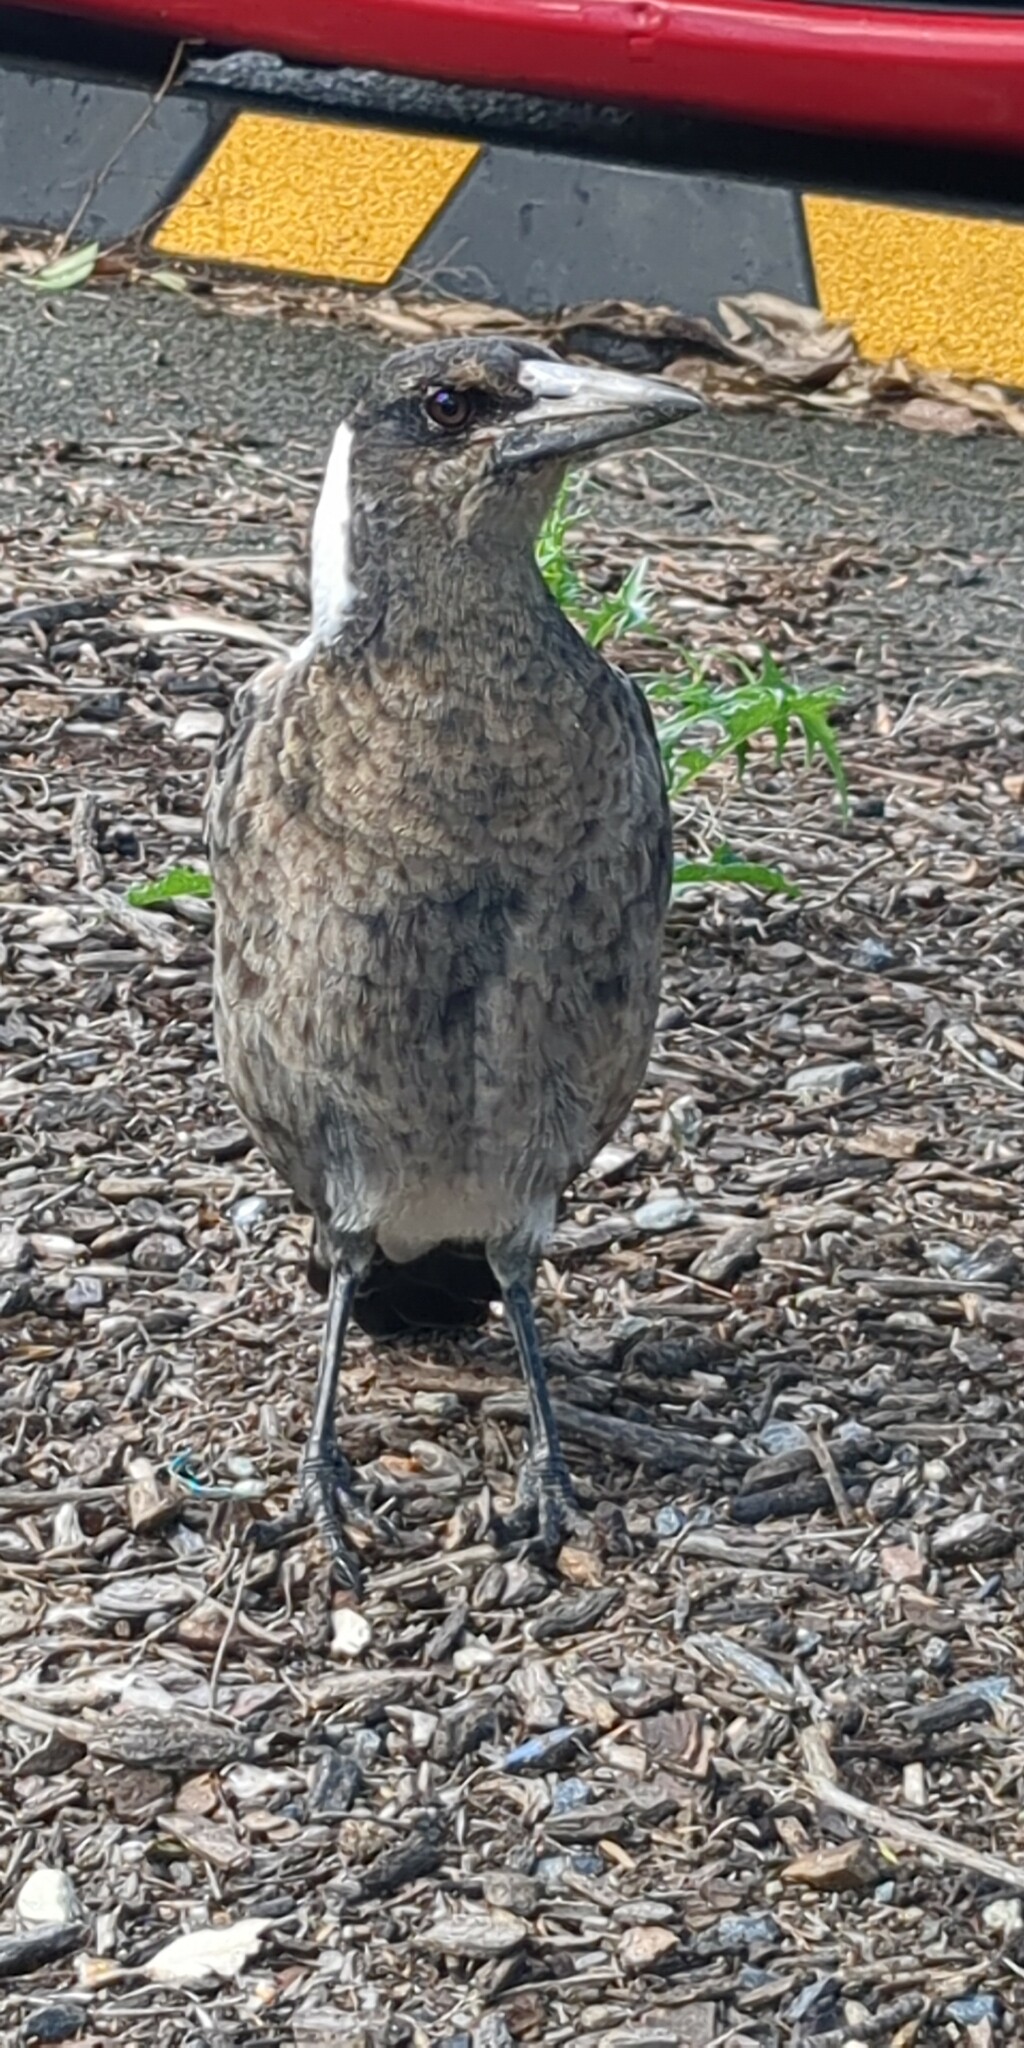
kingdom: Animalia
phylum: Chordata
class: Aves
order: Passeriformes
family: Cracticidae
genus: Gymnorhina
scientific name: Gymnorhina tibicen
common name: Australian magpie
